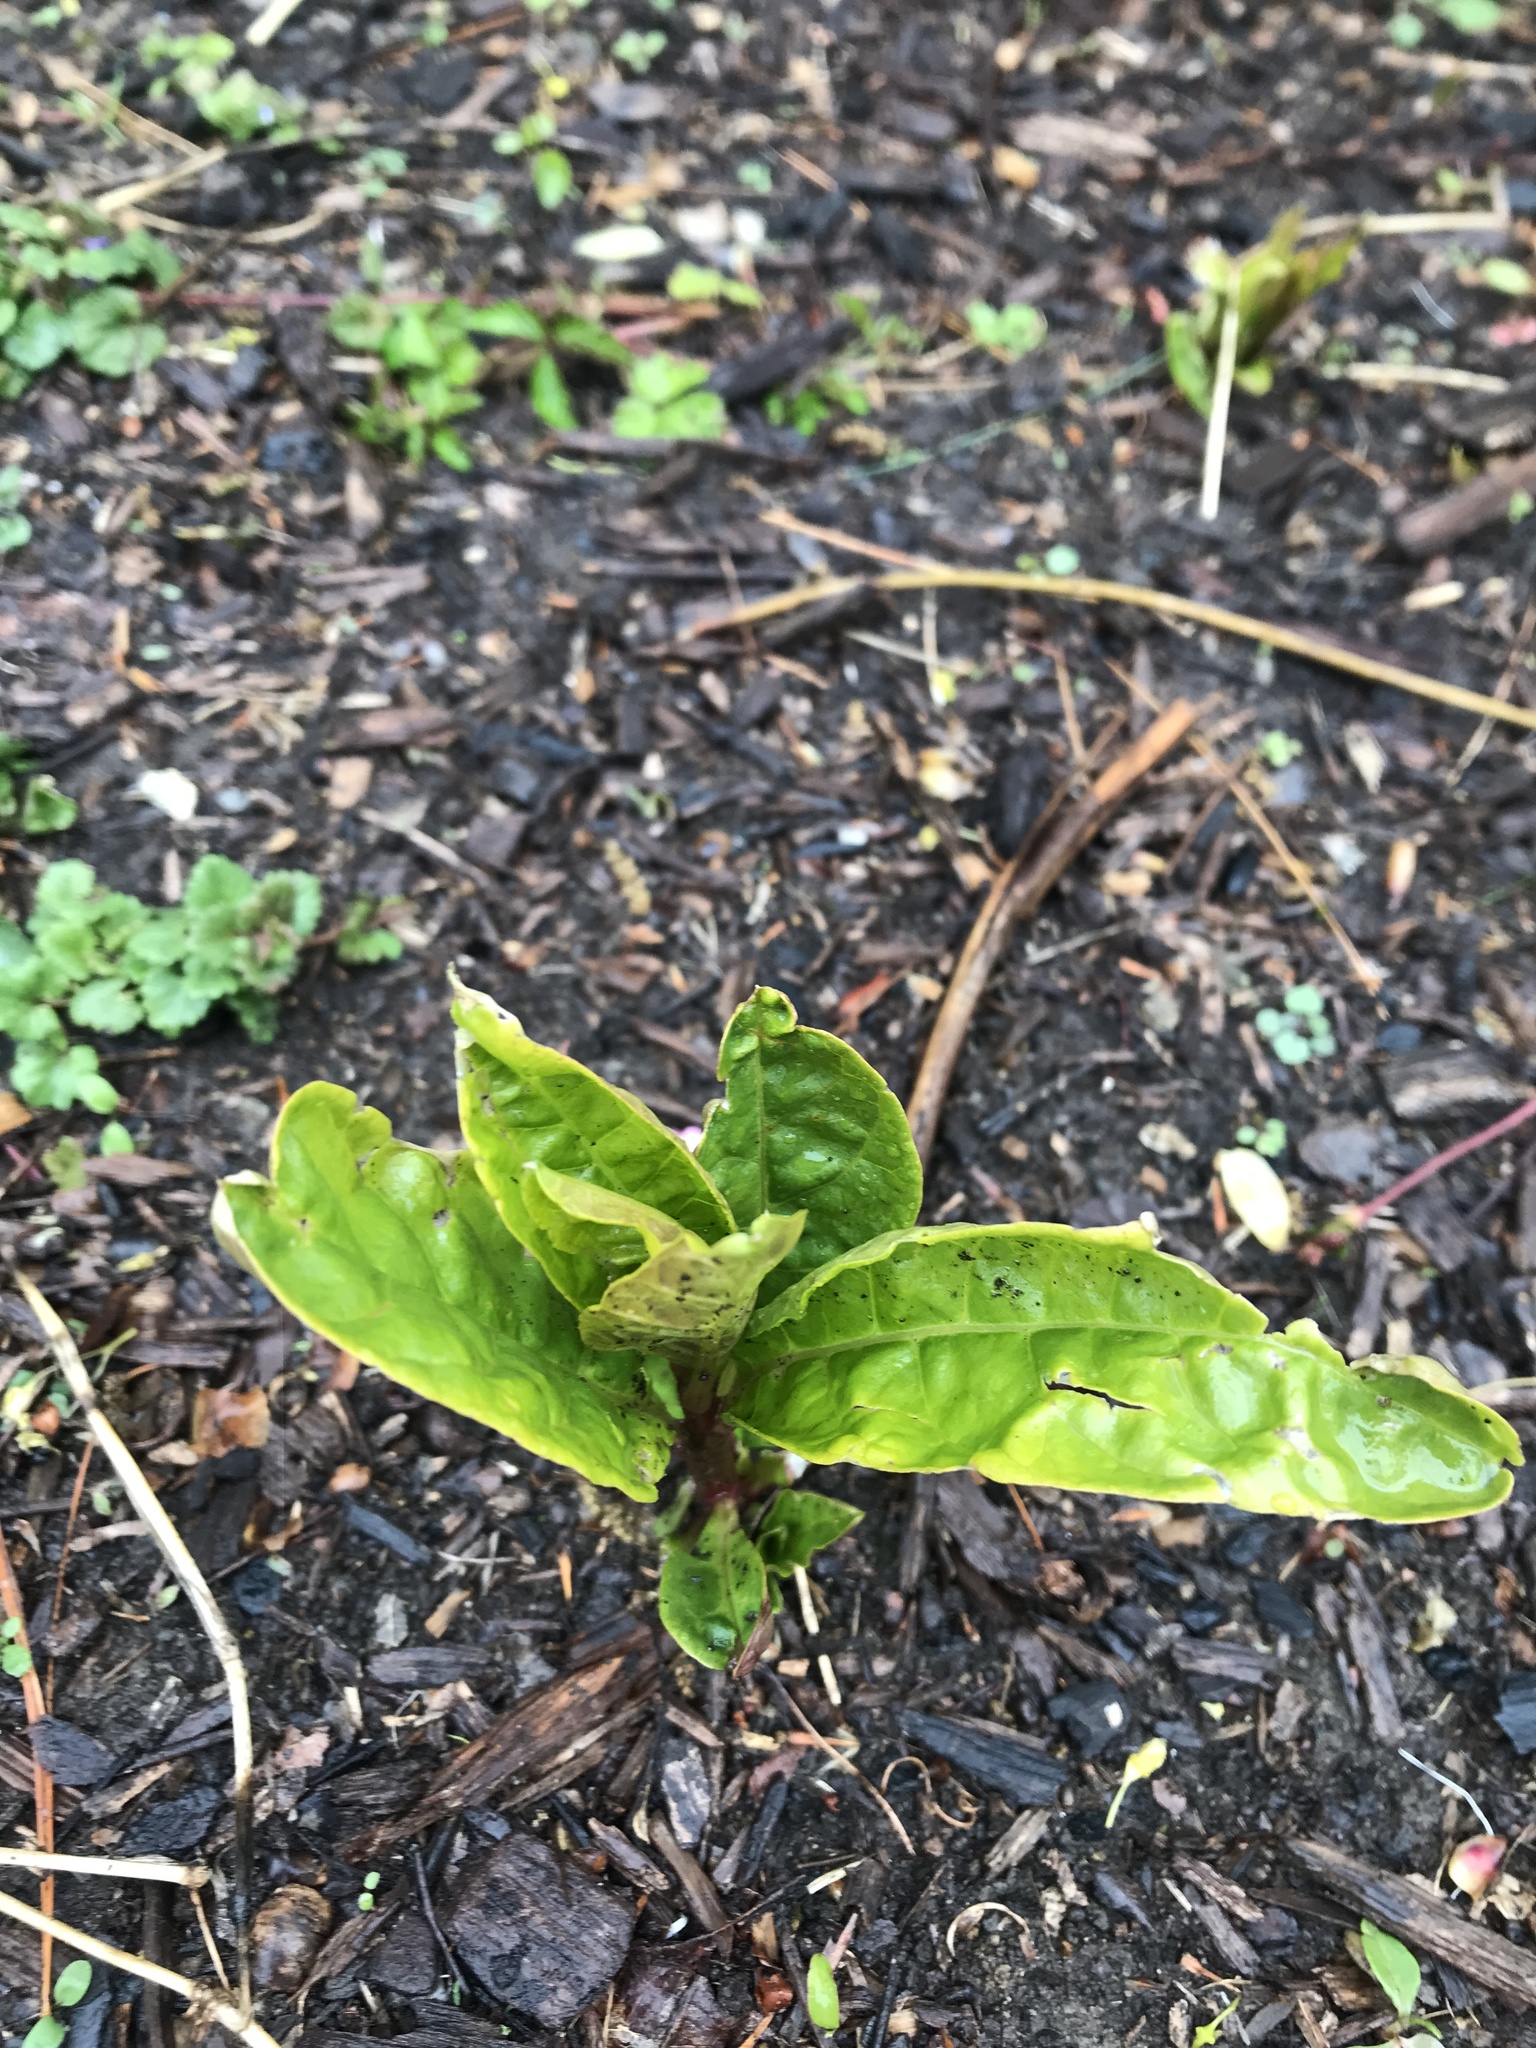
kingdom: Plantae
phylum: Tracheophyta
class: Magnoliopsida
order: Caryophyllales
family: Phytolaccaceae
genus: Phytolacca
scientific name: Phytolacca americana
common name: American pokeweed
